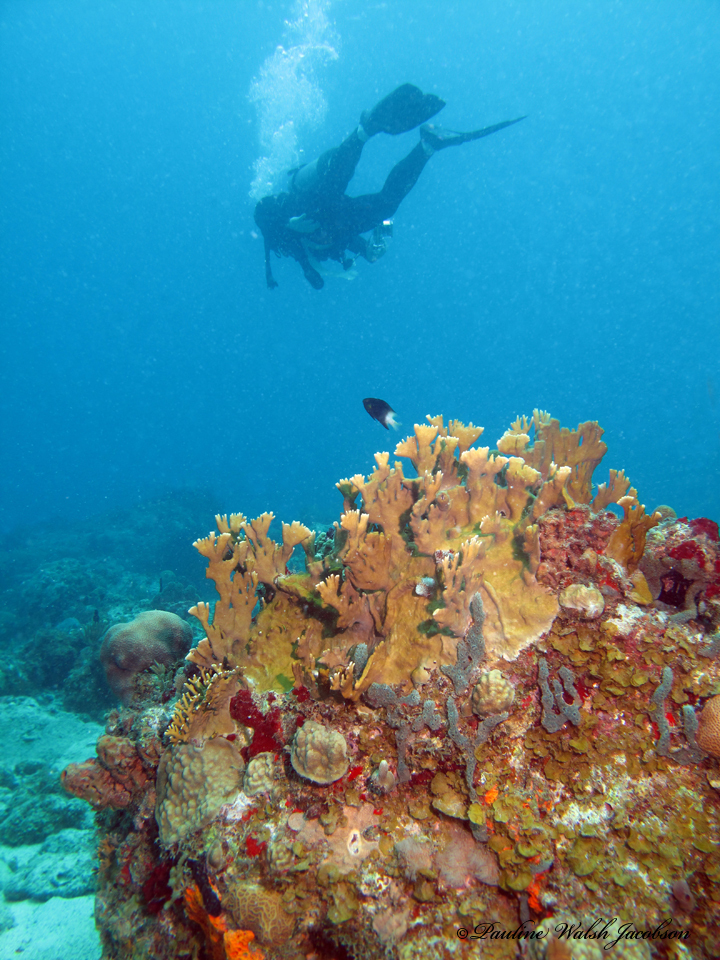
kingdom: Animalia
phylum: Chordata
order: Perciformes
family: Pomacentridae
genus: Stegastes
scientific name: Stegastes partitus
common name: Bicolor damselfish
